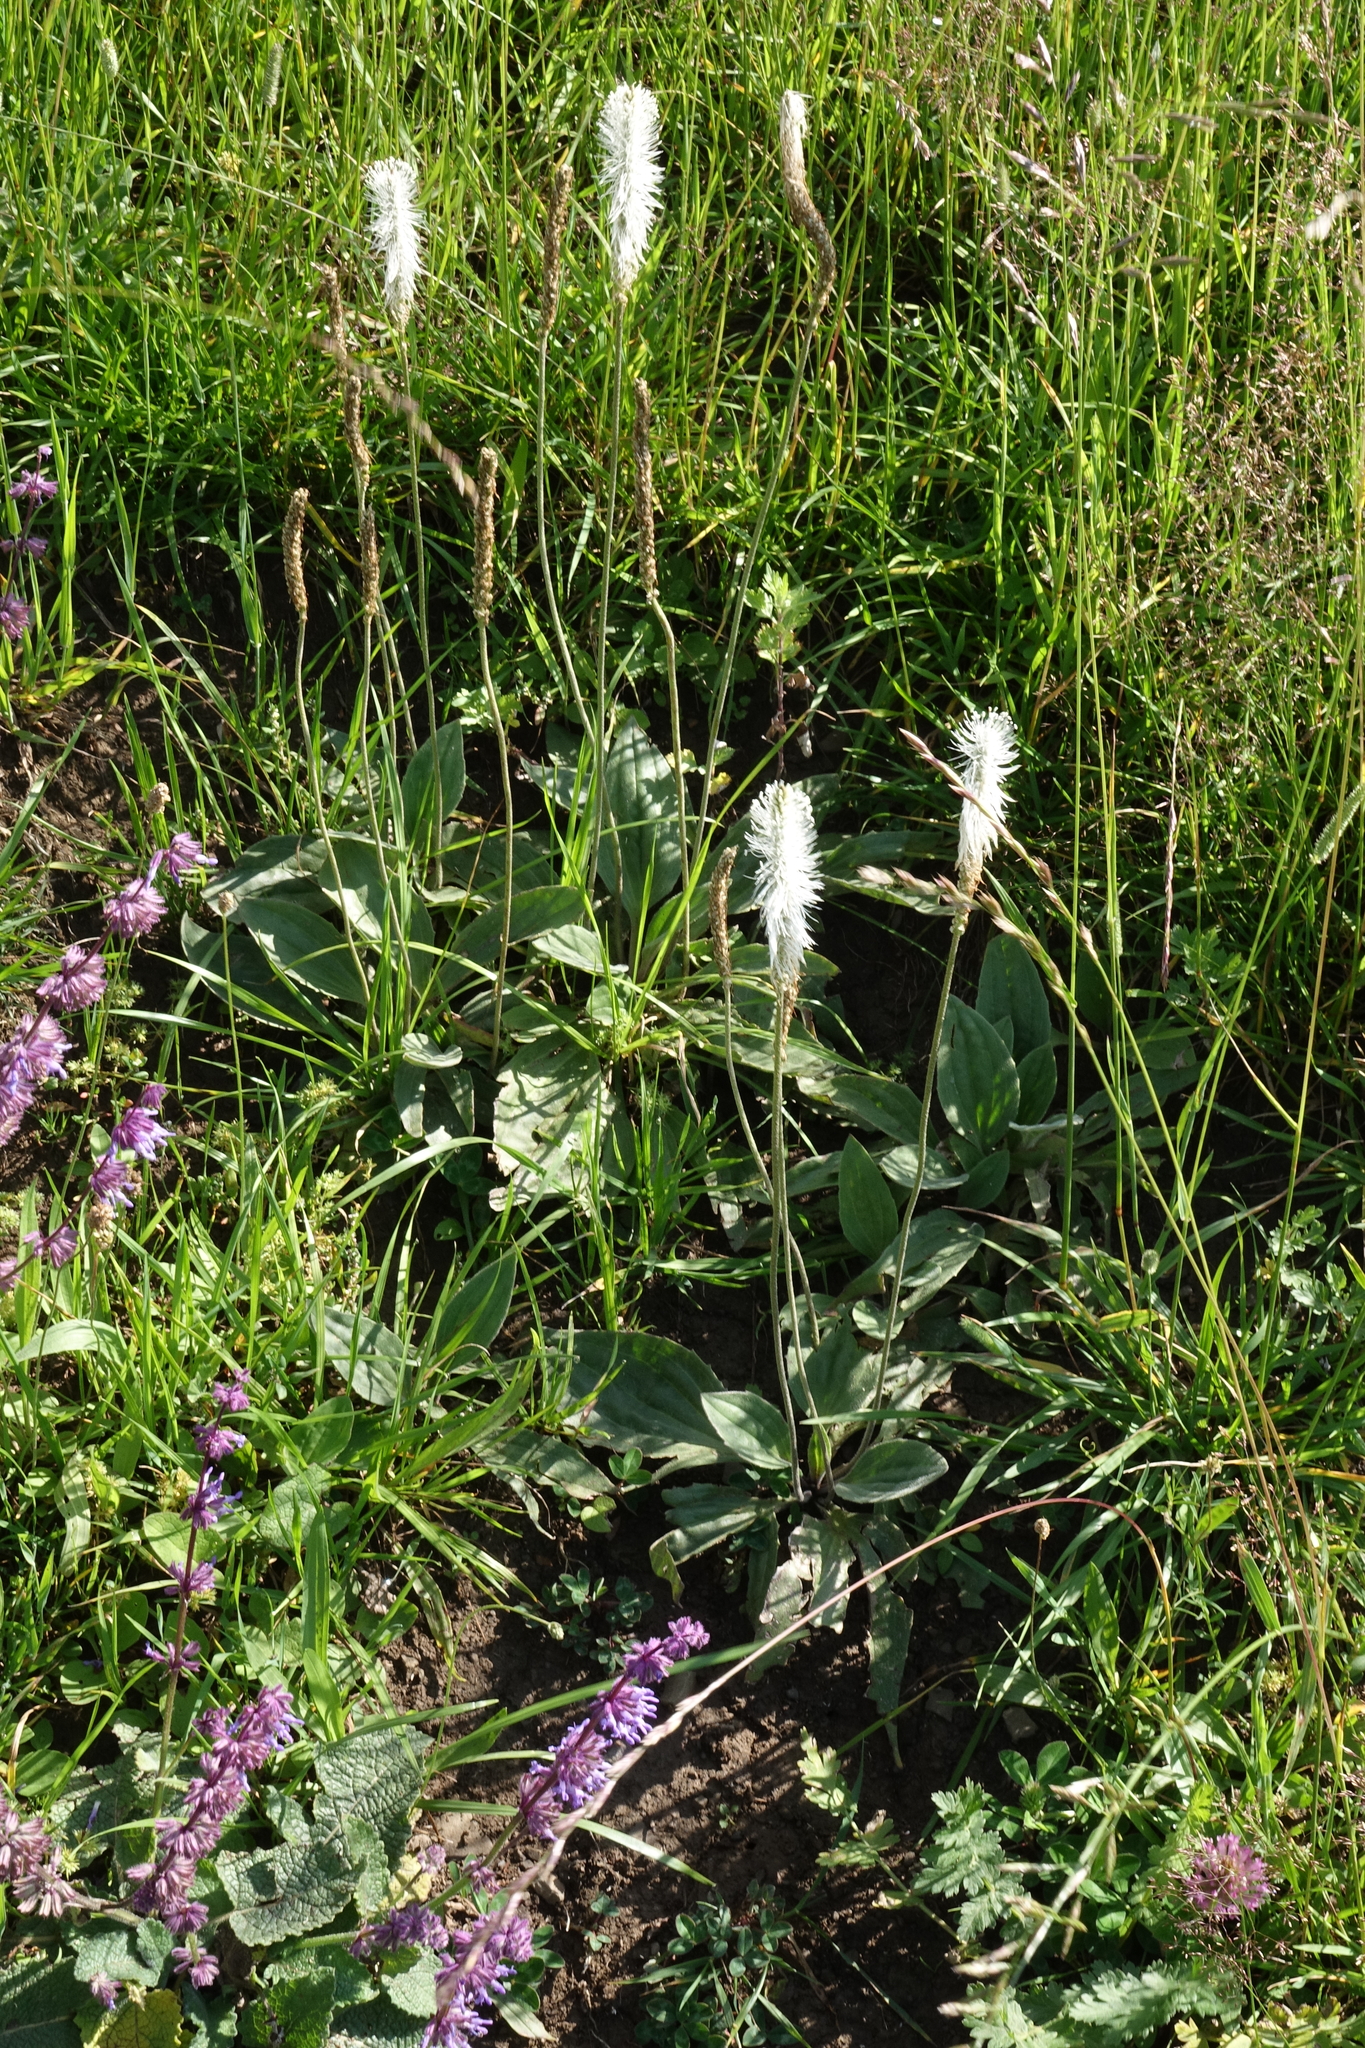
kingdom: Plantae
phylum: Tracheophyta
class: Magnoliopsida
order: Lamiales
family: Plantaginaceae
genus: Plantago
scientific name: Plantago media
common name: Hoary plantain
